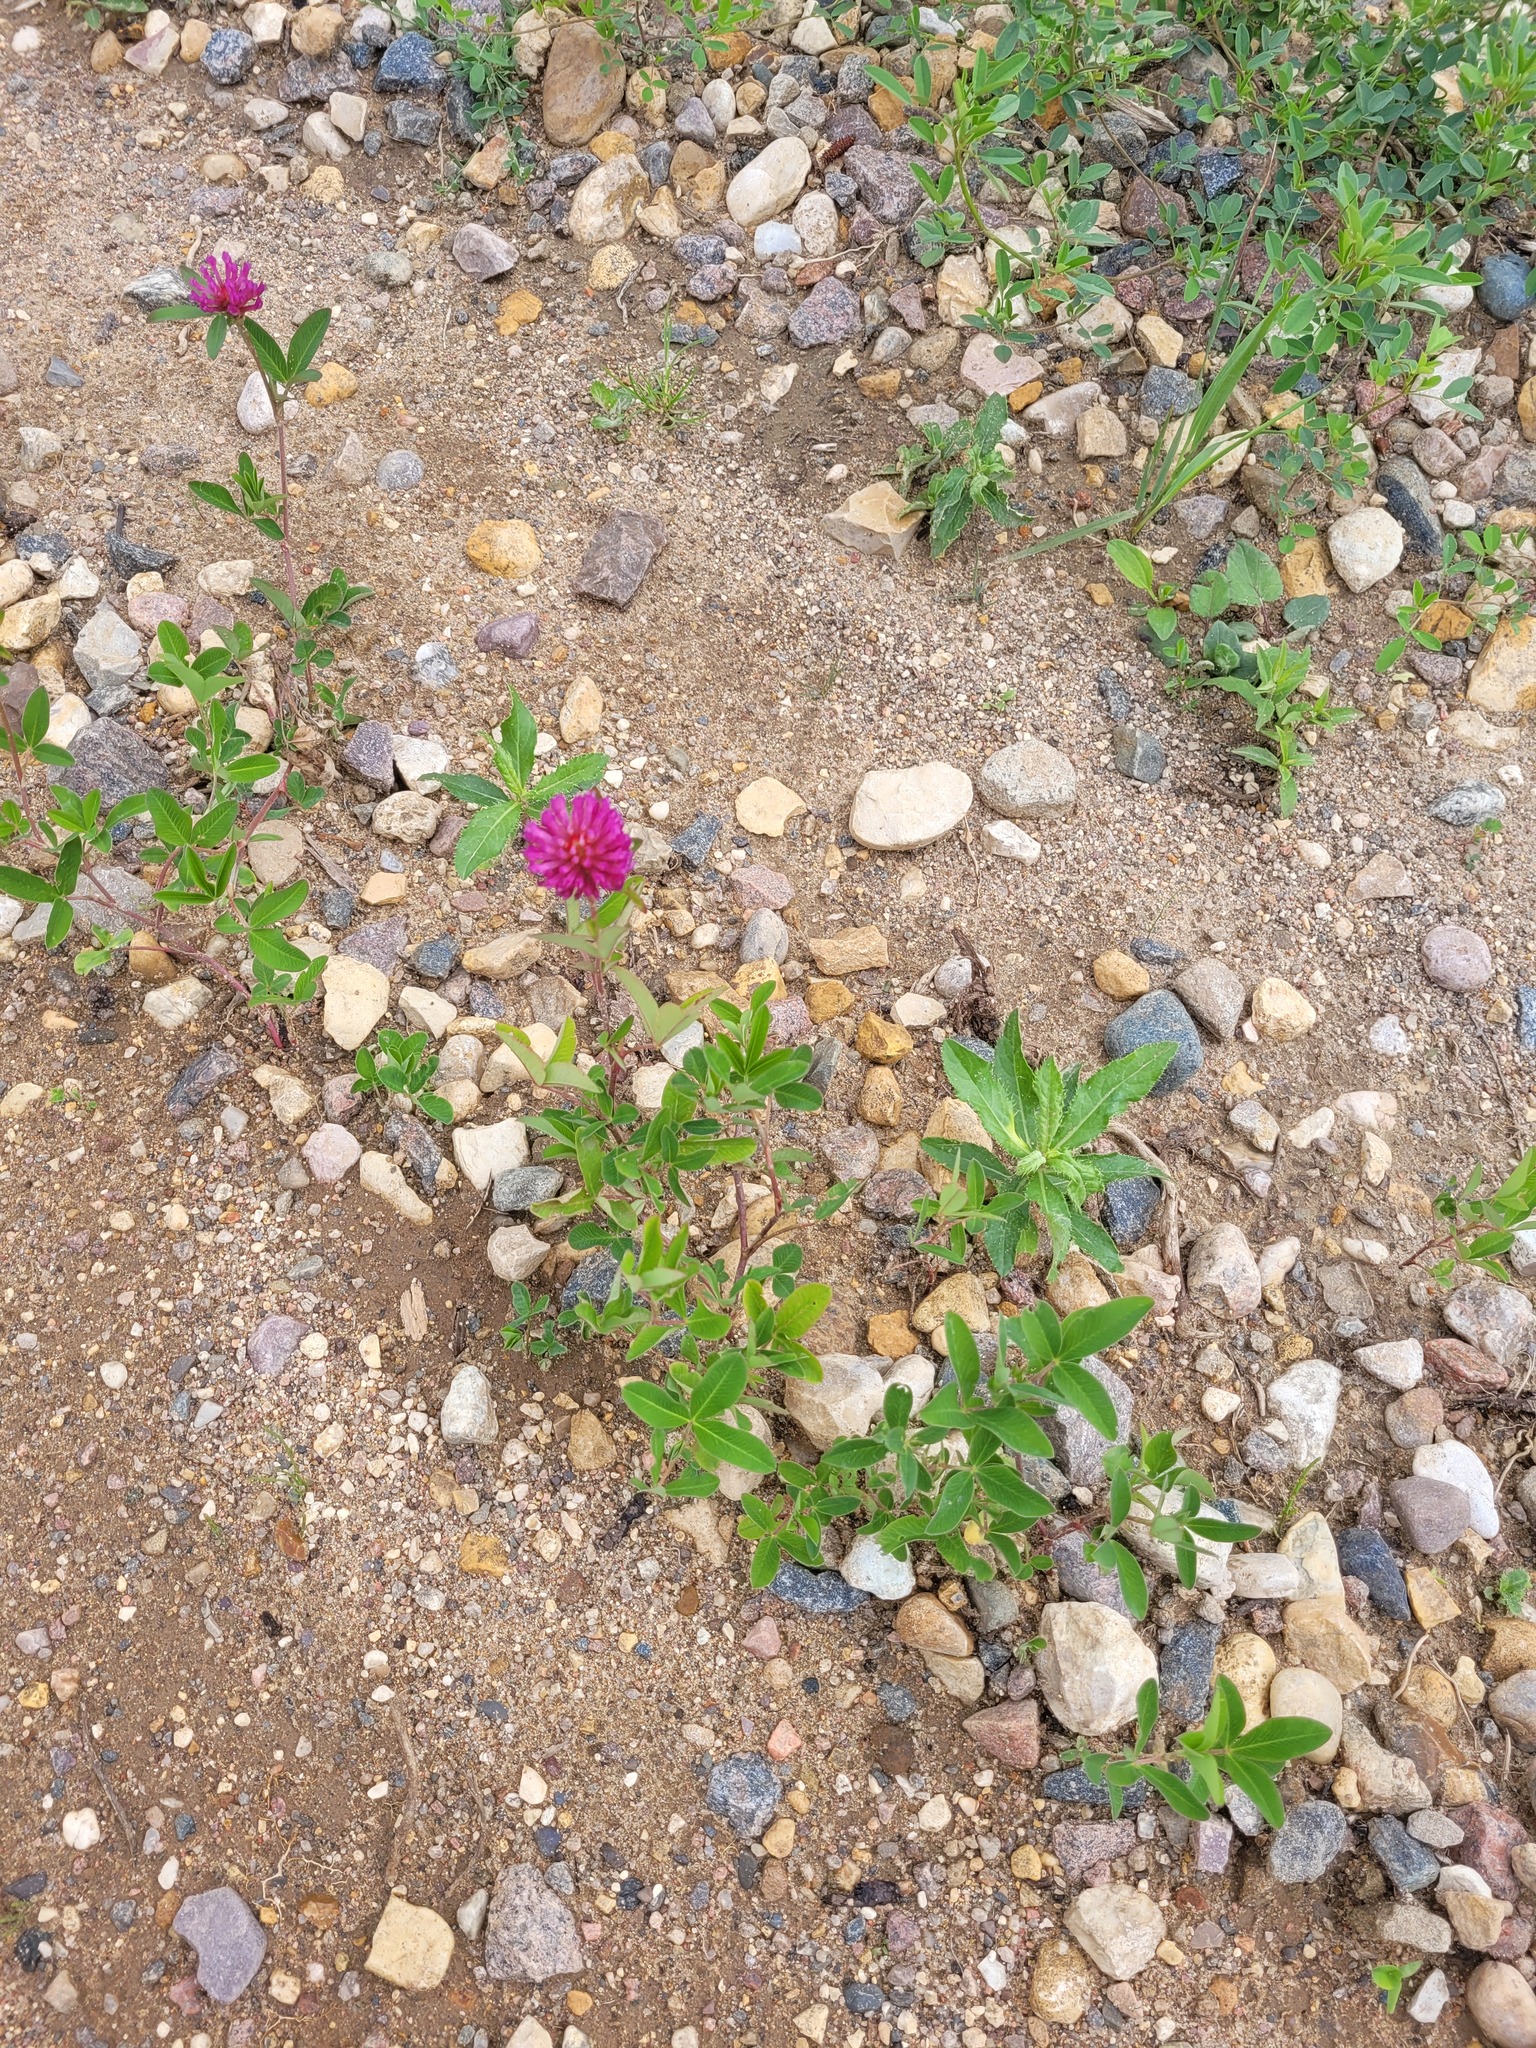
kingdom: Plantae
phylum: Tracheophyta
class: Magnoliopsida
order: Fabales
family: Fabaceae
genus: Trifolium
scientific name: Trifolium medium
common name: Zigzag clover
